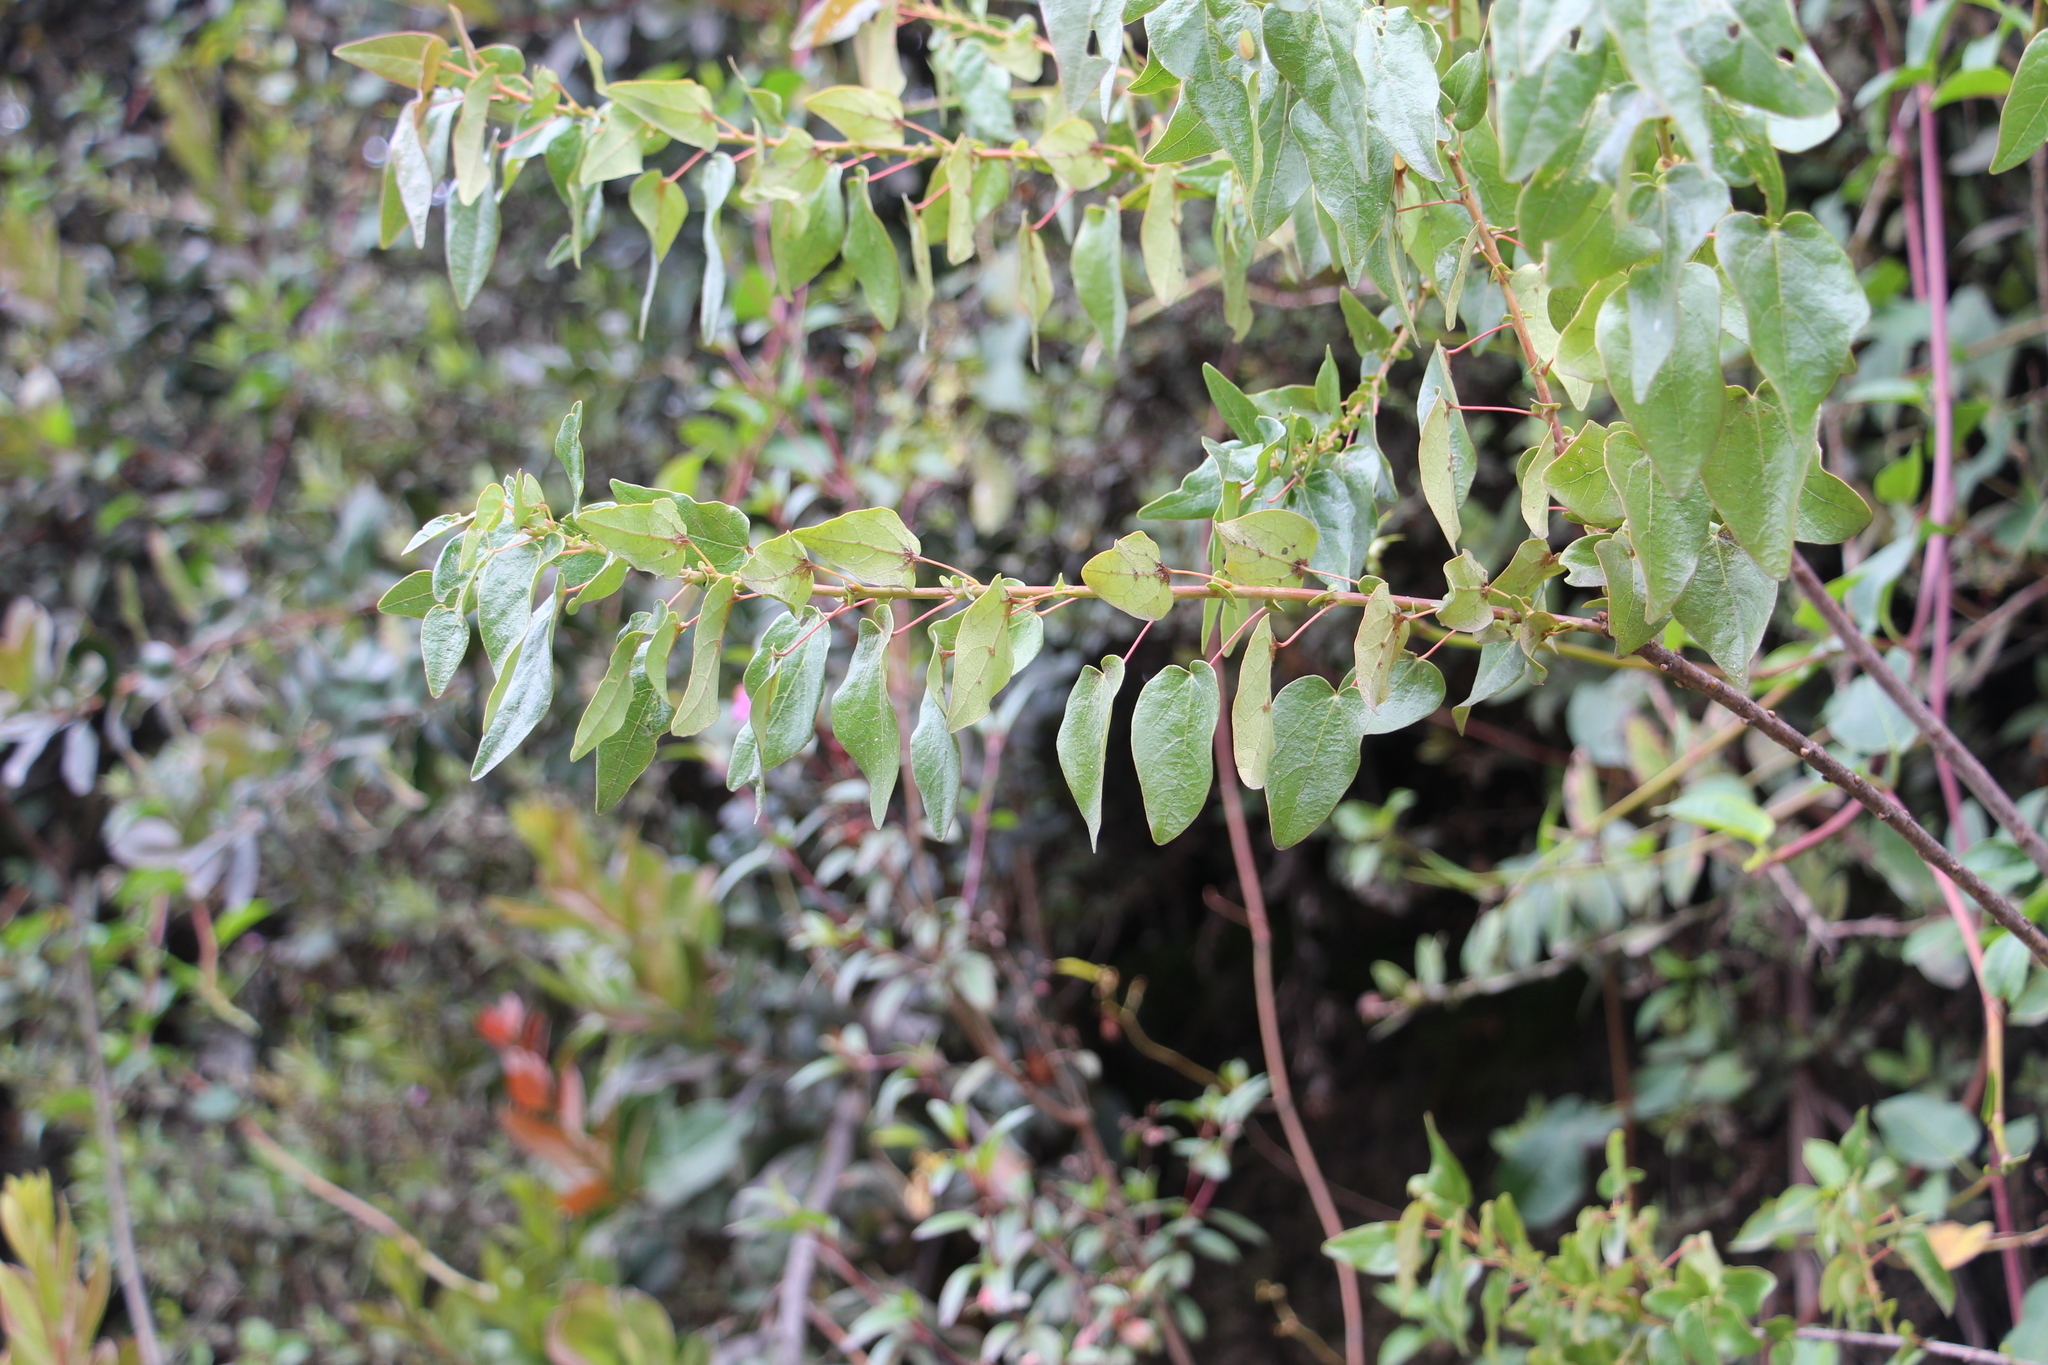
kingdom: Plantae
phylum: Tracheophyta
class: Magnoliopsida
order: Oxalidales
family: Elaeocarpaceae
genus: Vallea
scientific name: Vallea stipularis
